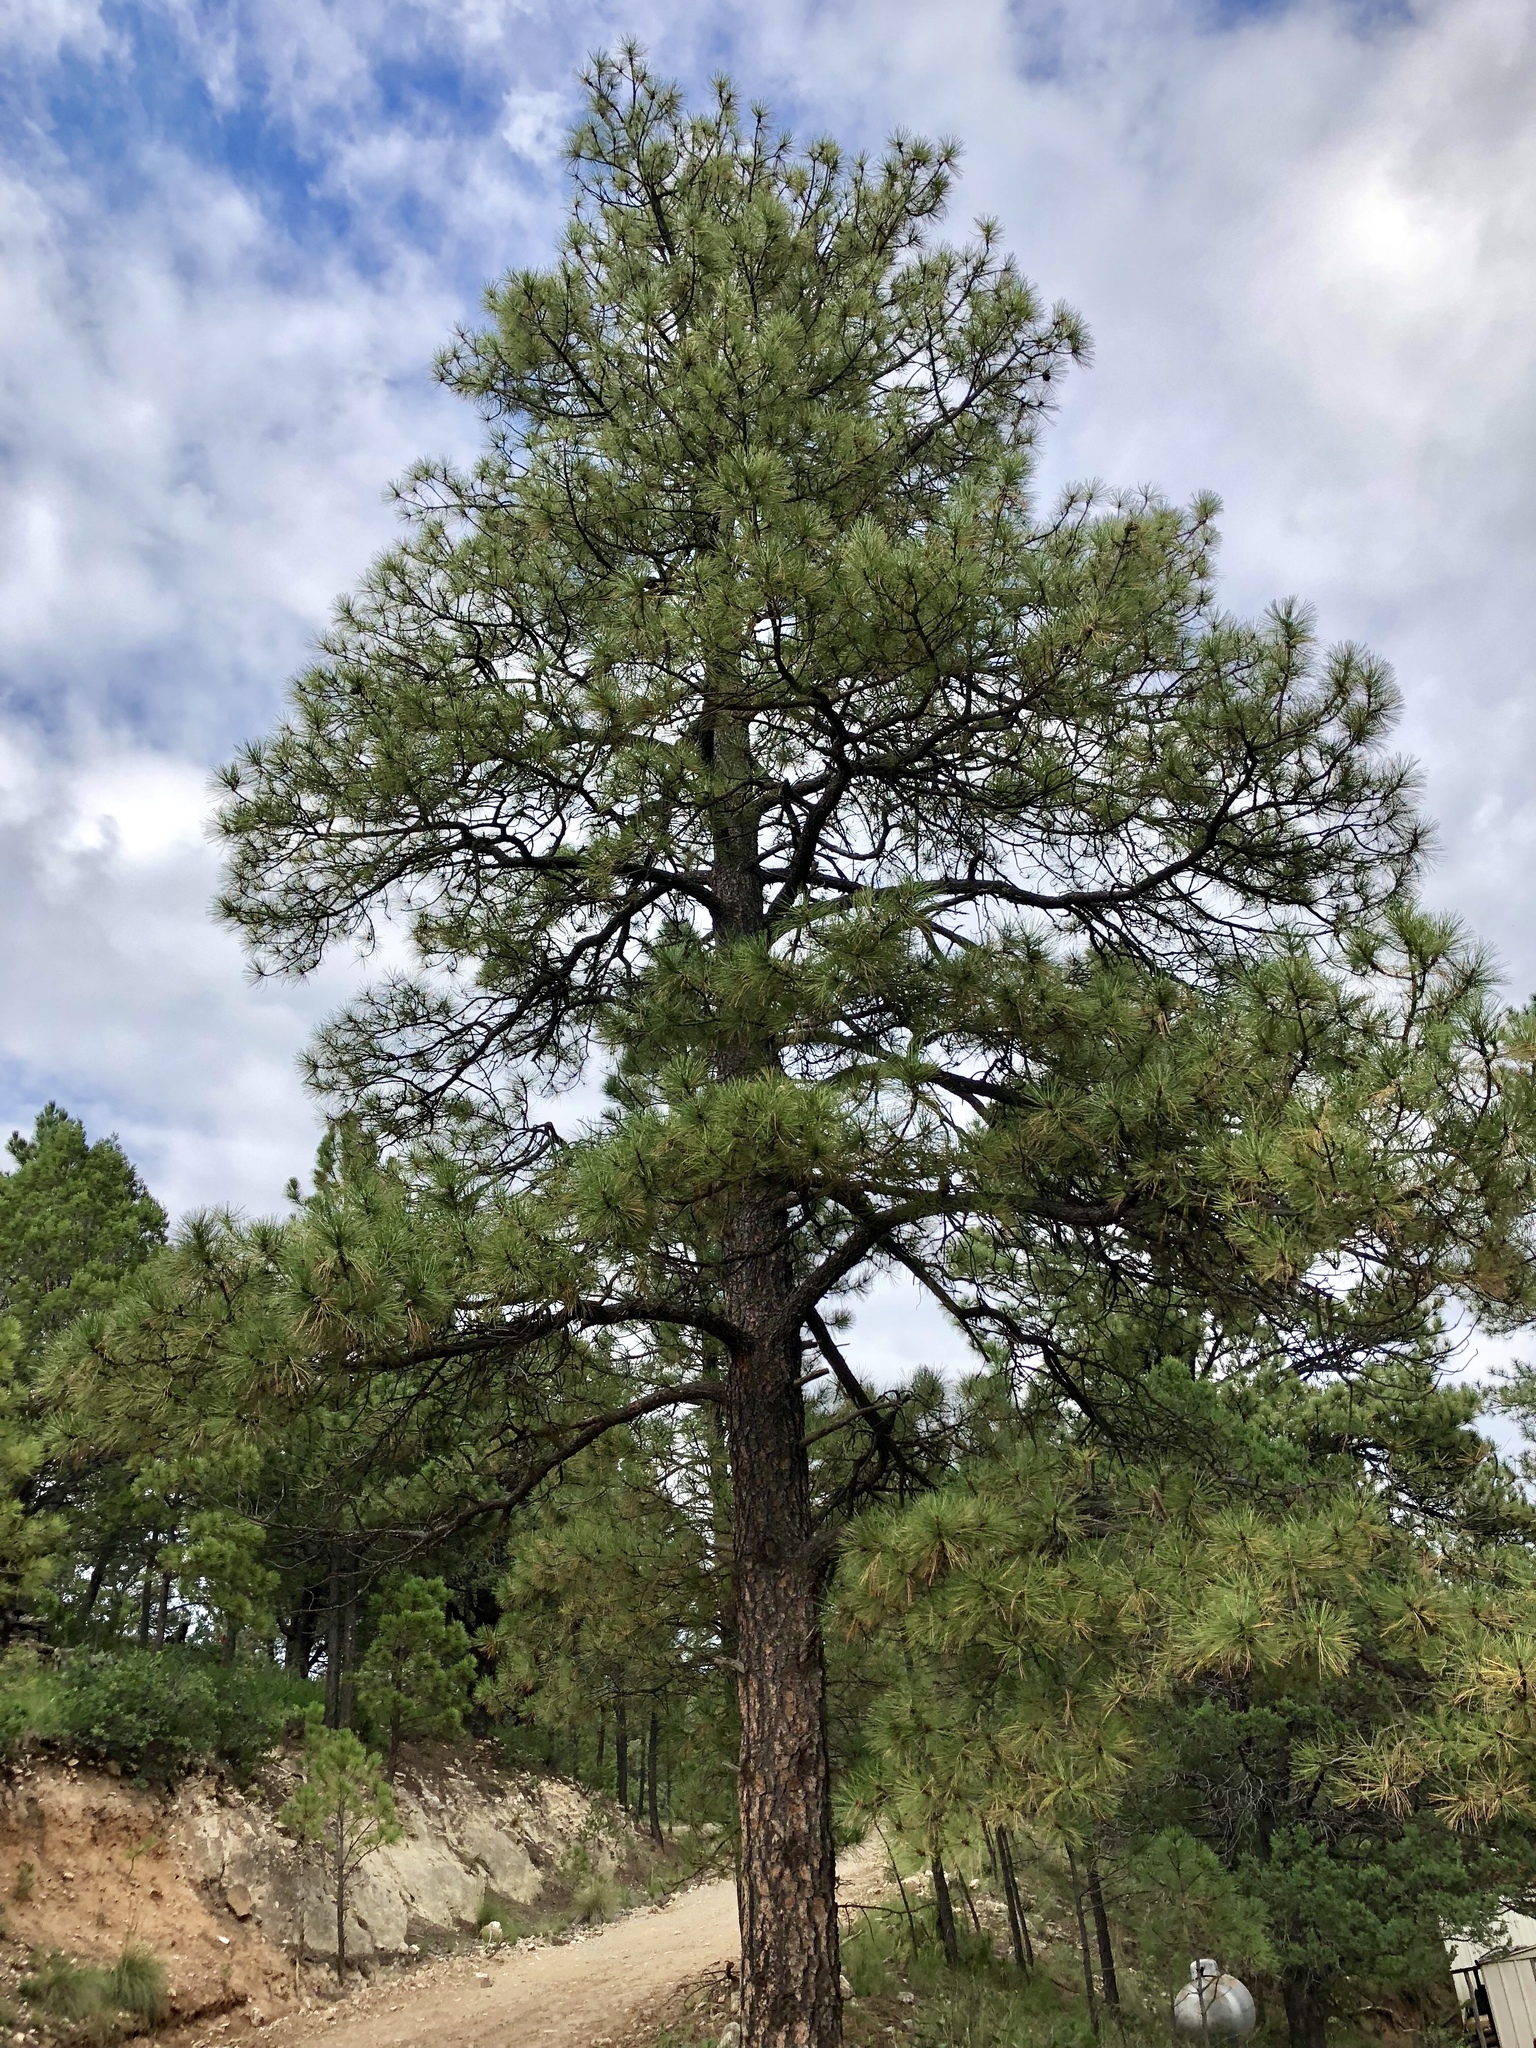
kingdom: Plantae
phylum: Tracheophyta
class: Pinopsida
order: Pinales
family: Pinaceae
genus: Pinus
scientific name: Pinus ponderosa
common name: Western yellow-pine
